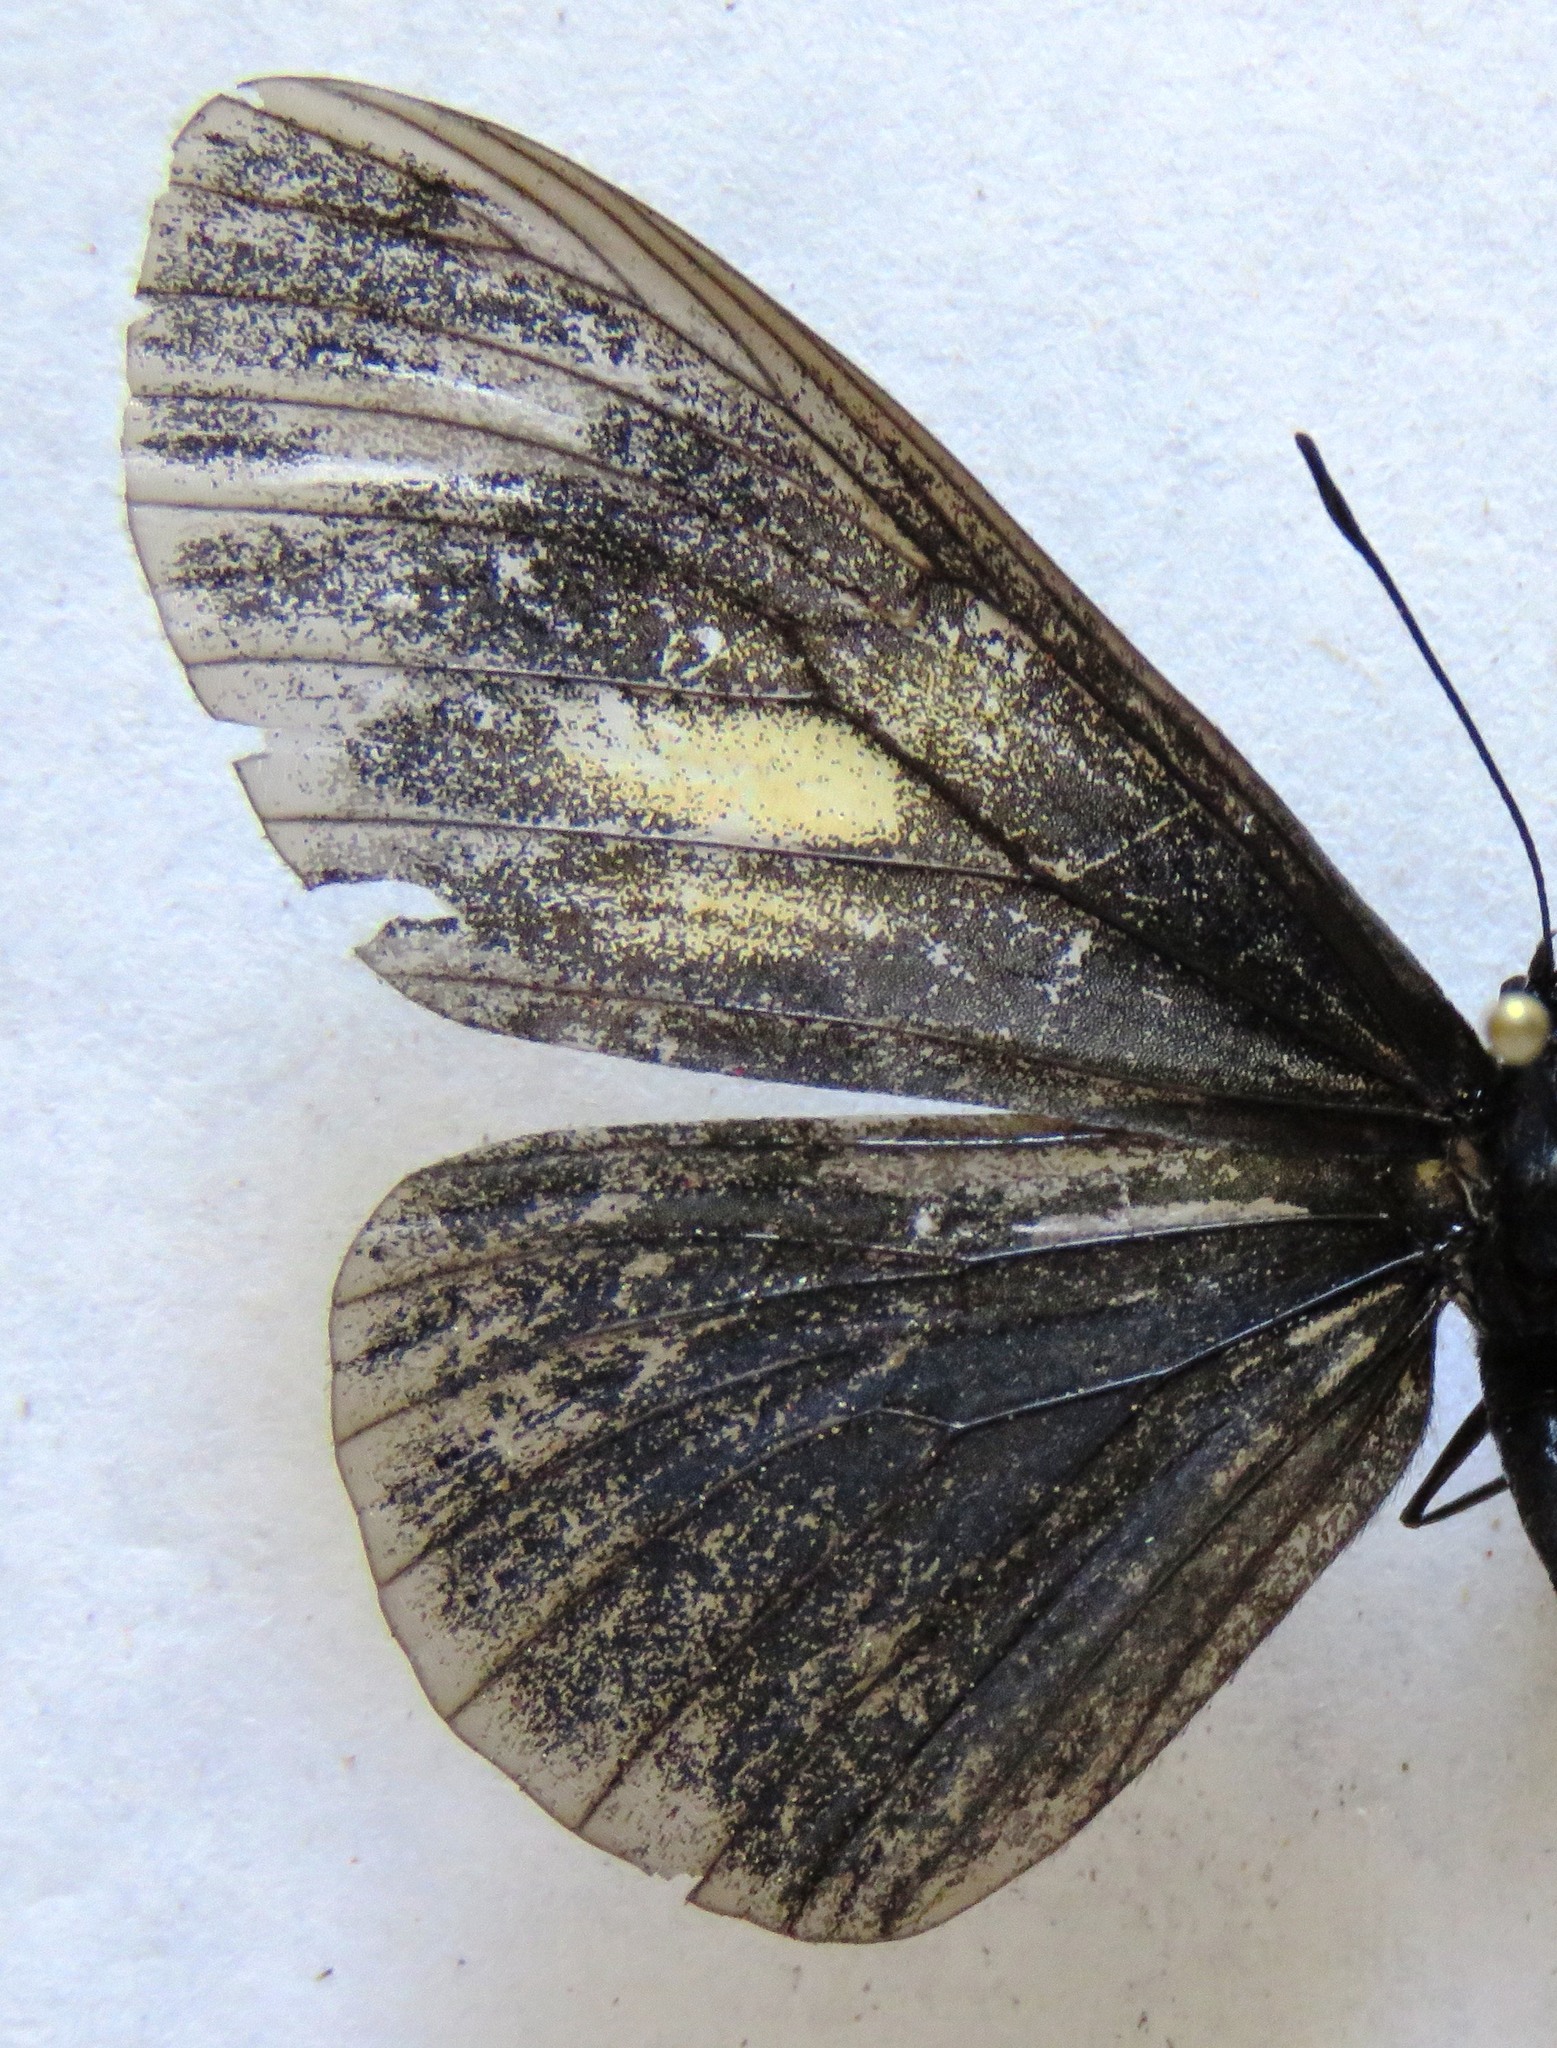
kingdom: Animalia
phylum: Arthropoda
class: Insecta
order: Lepidoptera
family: Nymphalidae
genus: Acraea
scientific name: Acraea Altinote ozomene
